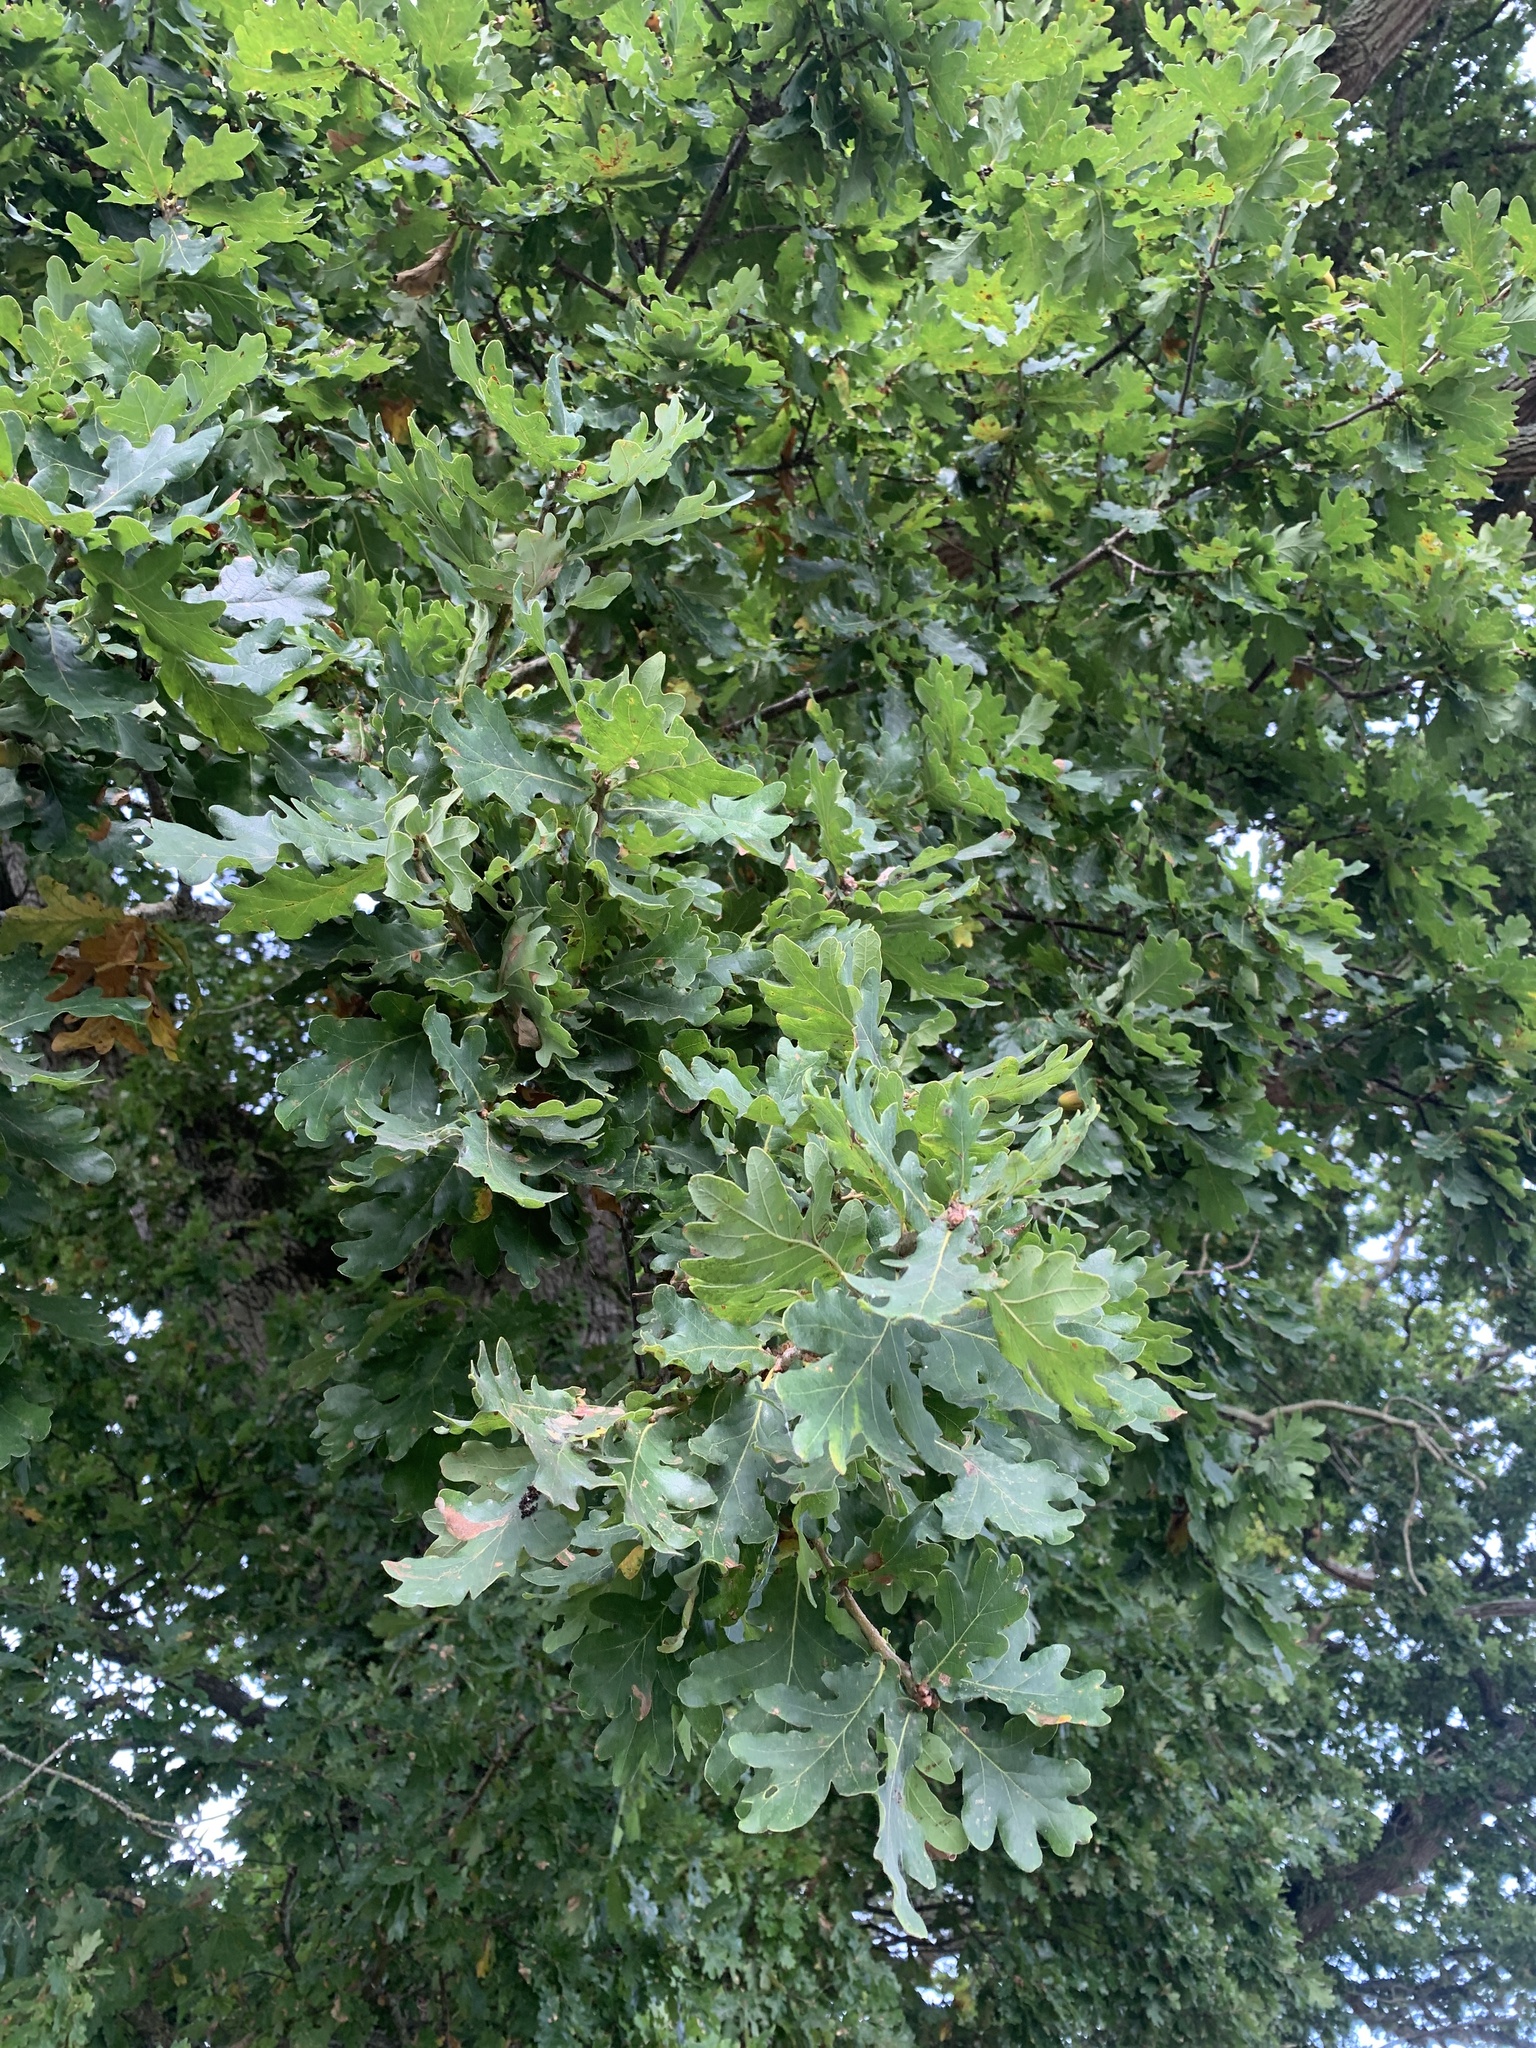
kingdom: Plantae
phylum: Tracheophyta
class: Magnoliopsida
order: Fagales
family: Fagaceae
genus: Quercus
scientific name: Quercus robur
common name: Pedunculate oak
